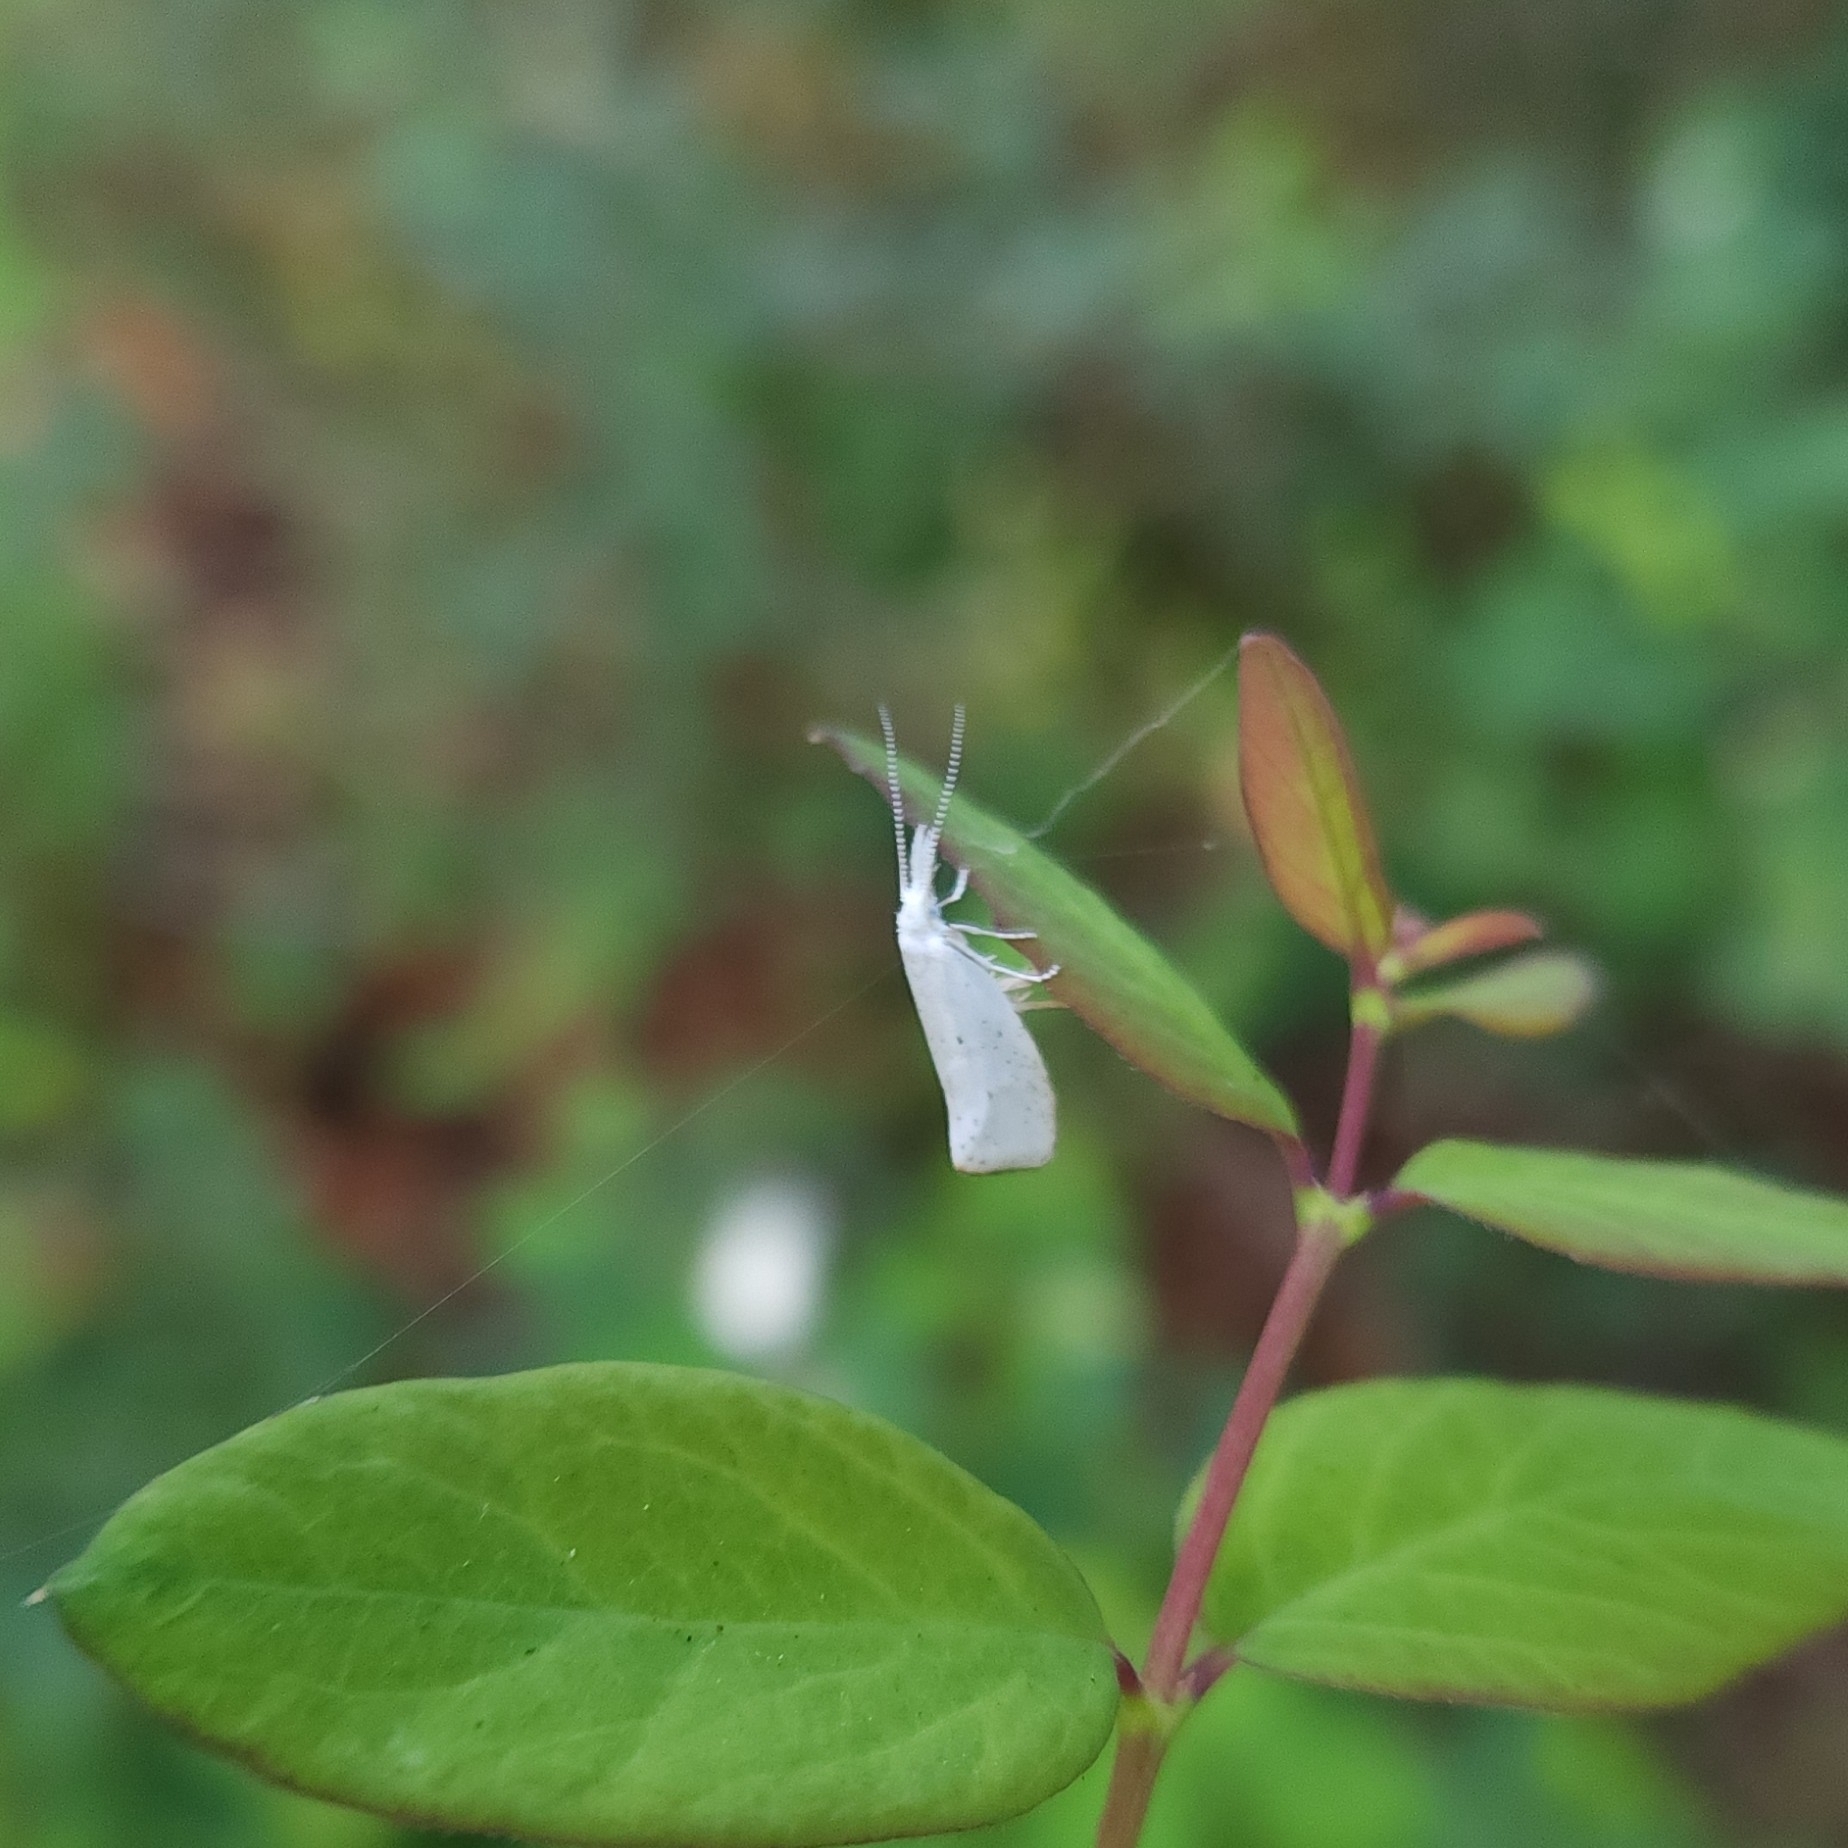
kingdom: Animalia
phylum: Arthropoda
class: Insecta
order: Lepidoptera
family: Ypsolophidae
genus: Euceratia
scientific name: Euceratia castella
